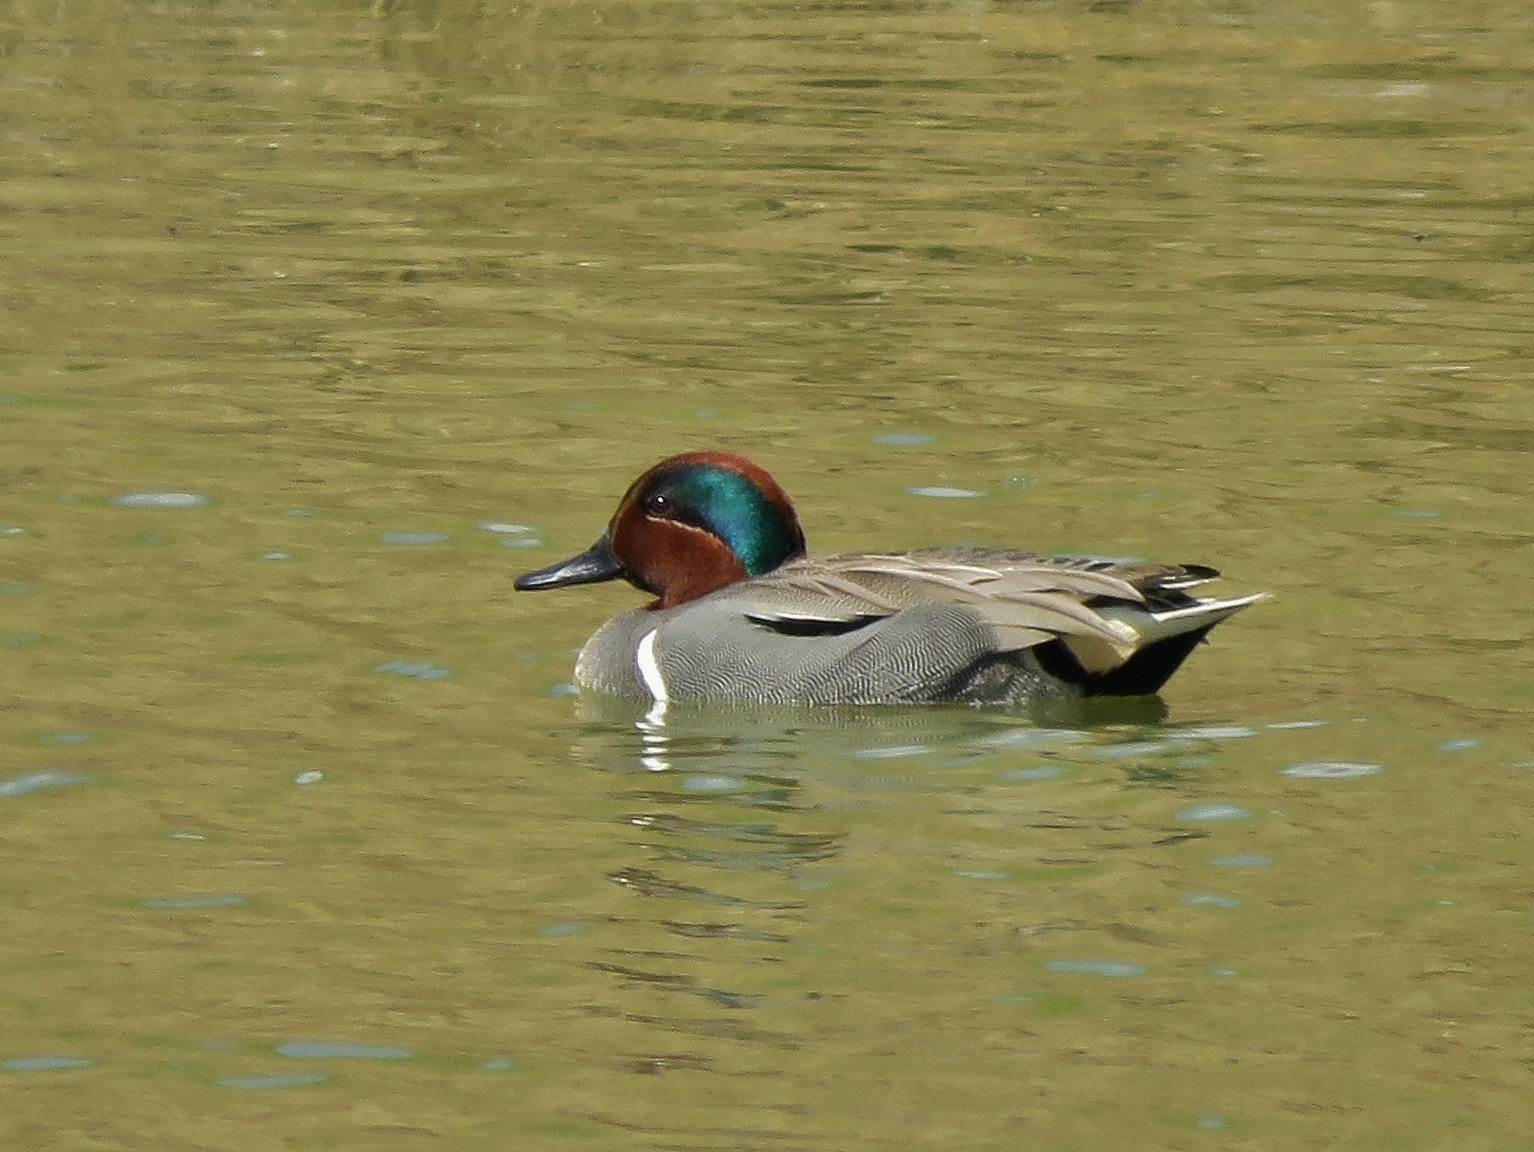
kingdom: Animalia
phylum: Chordata
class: Aves
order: Anseriformes
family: Anatidae
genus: Anas
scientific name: Anas crecca
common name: Eurasian teal
